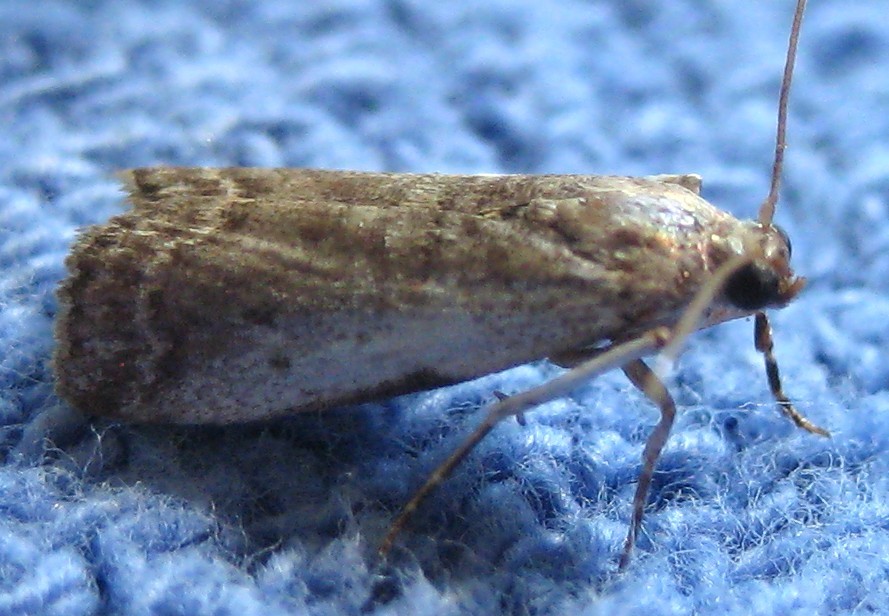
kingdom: Animalia
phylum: Arthropoda
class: Insecta
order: Lepidoptera
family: Pyralidae
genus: Acrobasis
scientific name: Acrobasis caryivorella
